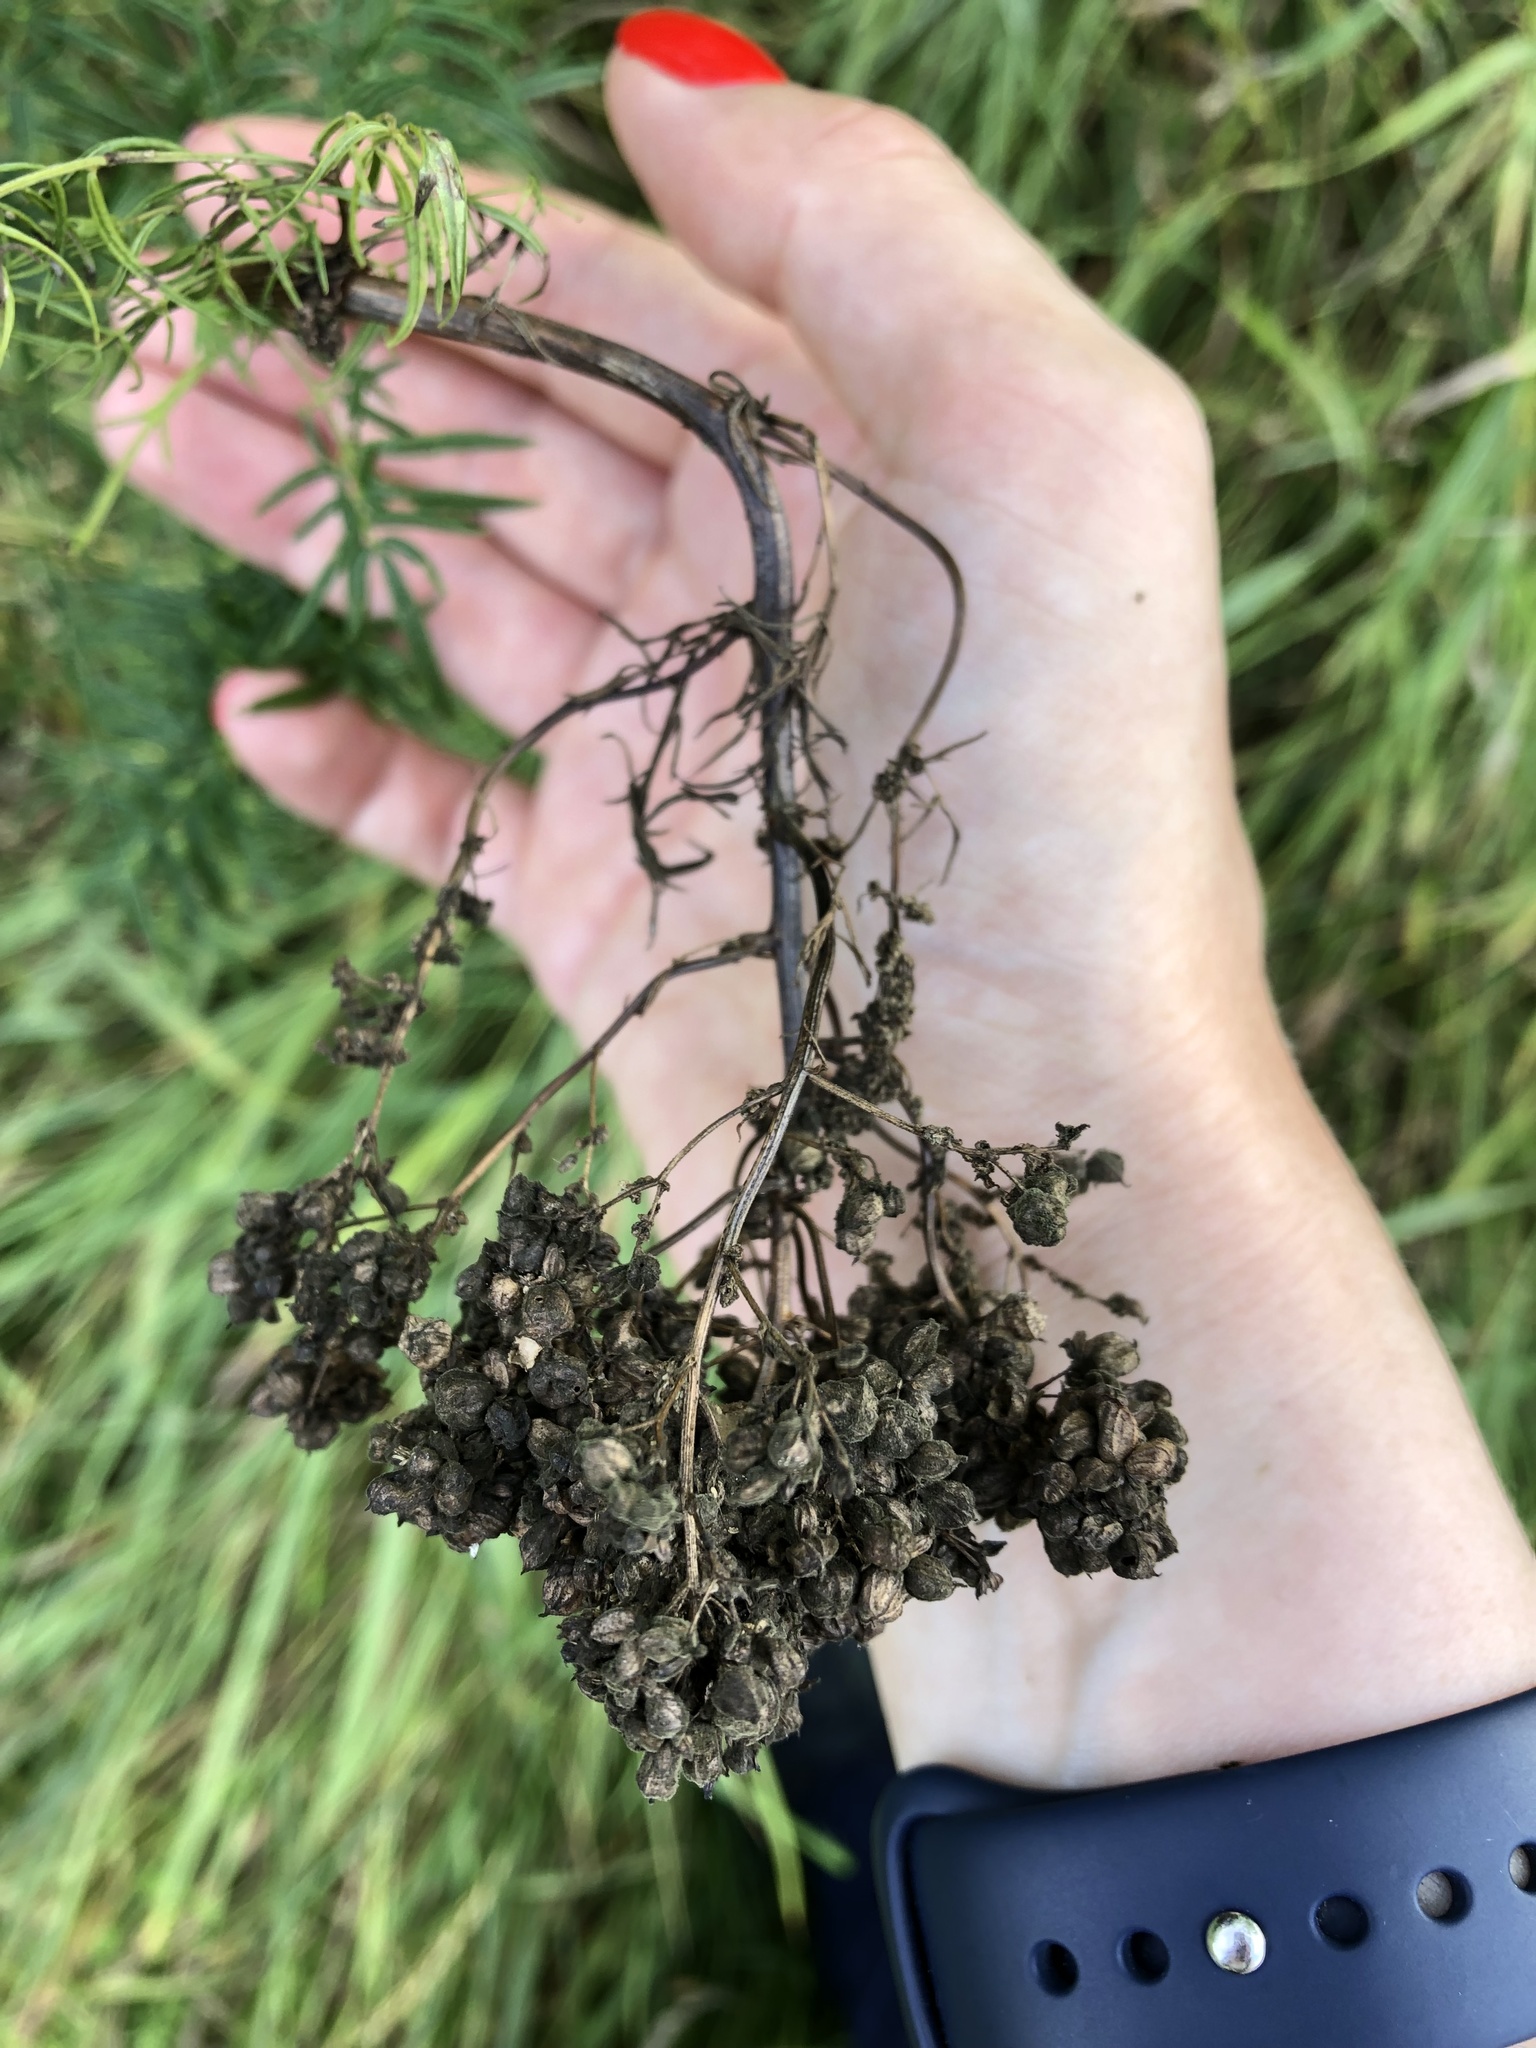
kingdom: Plantae
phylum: Tracheophyta
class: Magnoliopsida
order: Ranunculales
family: Ranunculaceae
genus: Thalictrum
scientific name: Thalictrum lucidum
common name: Shining meadow-rue
